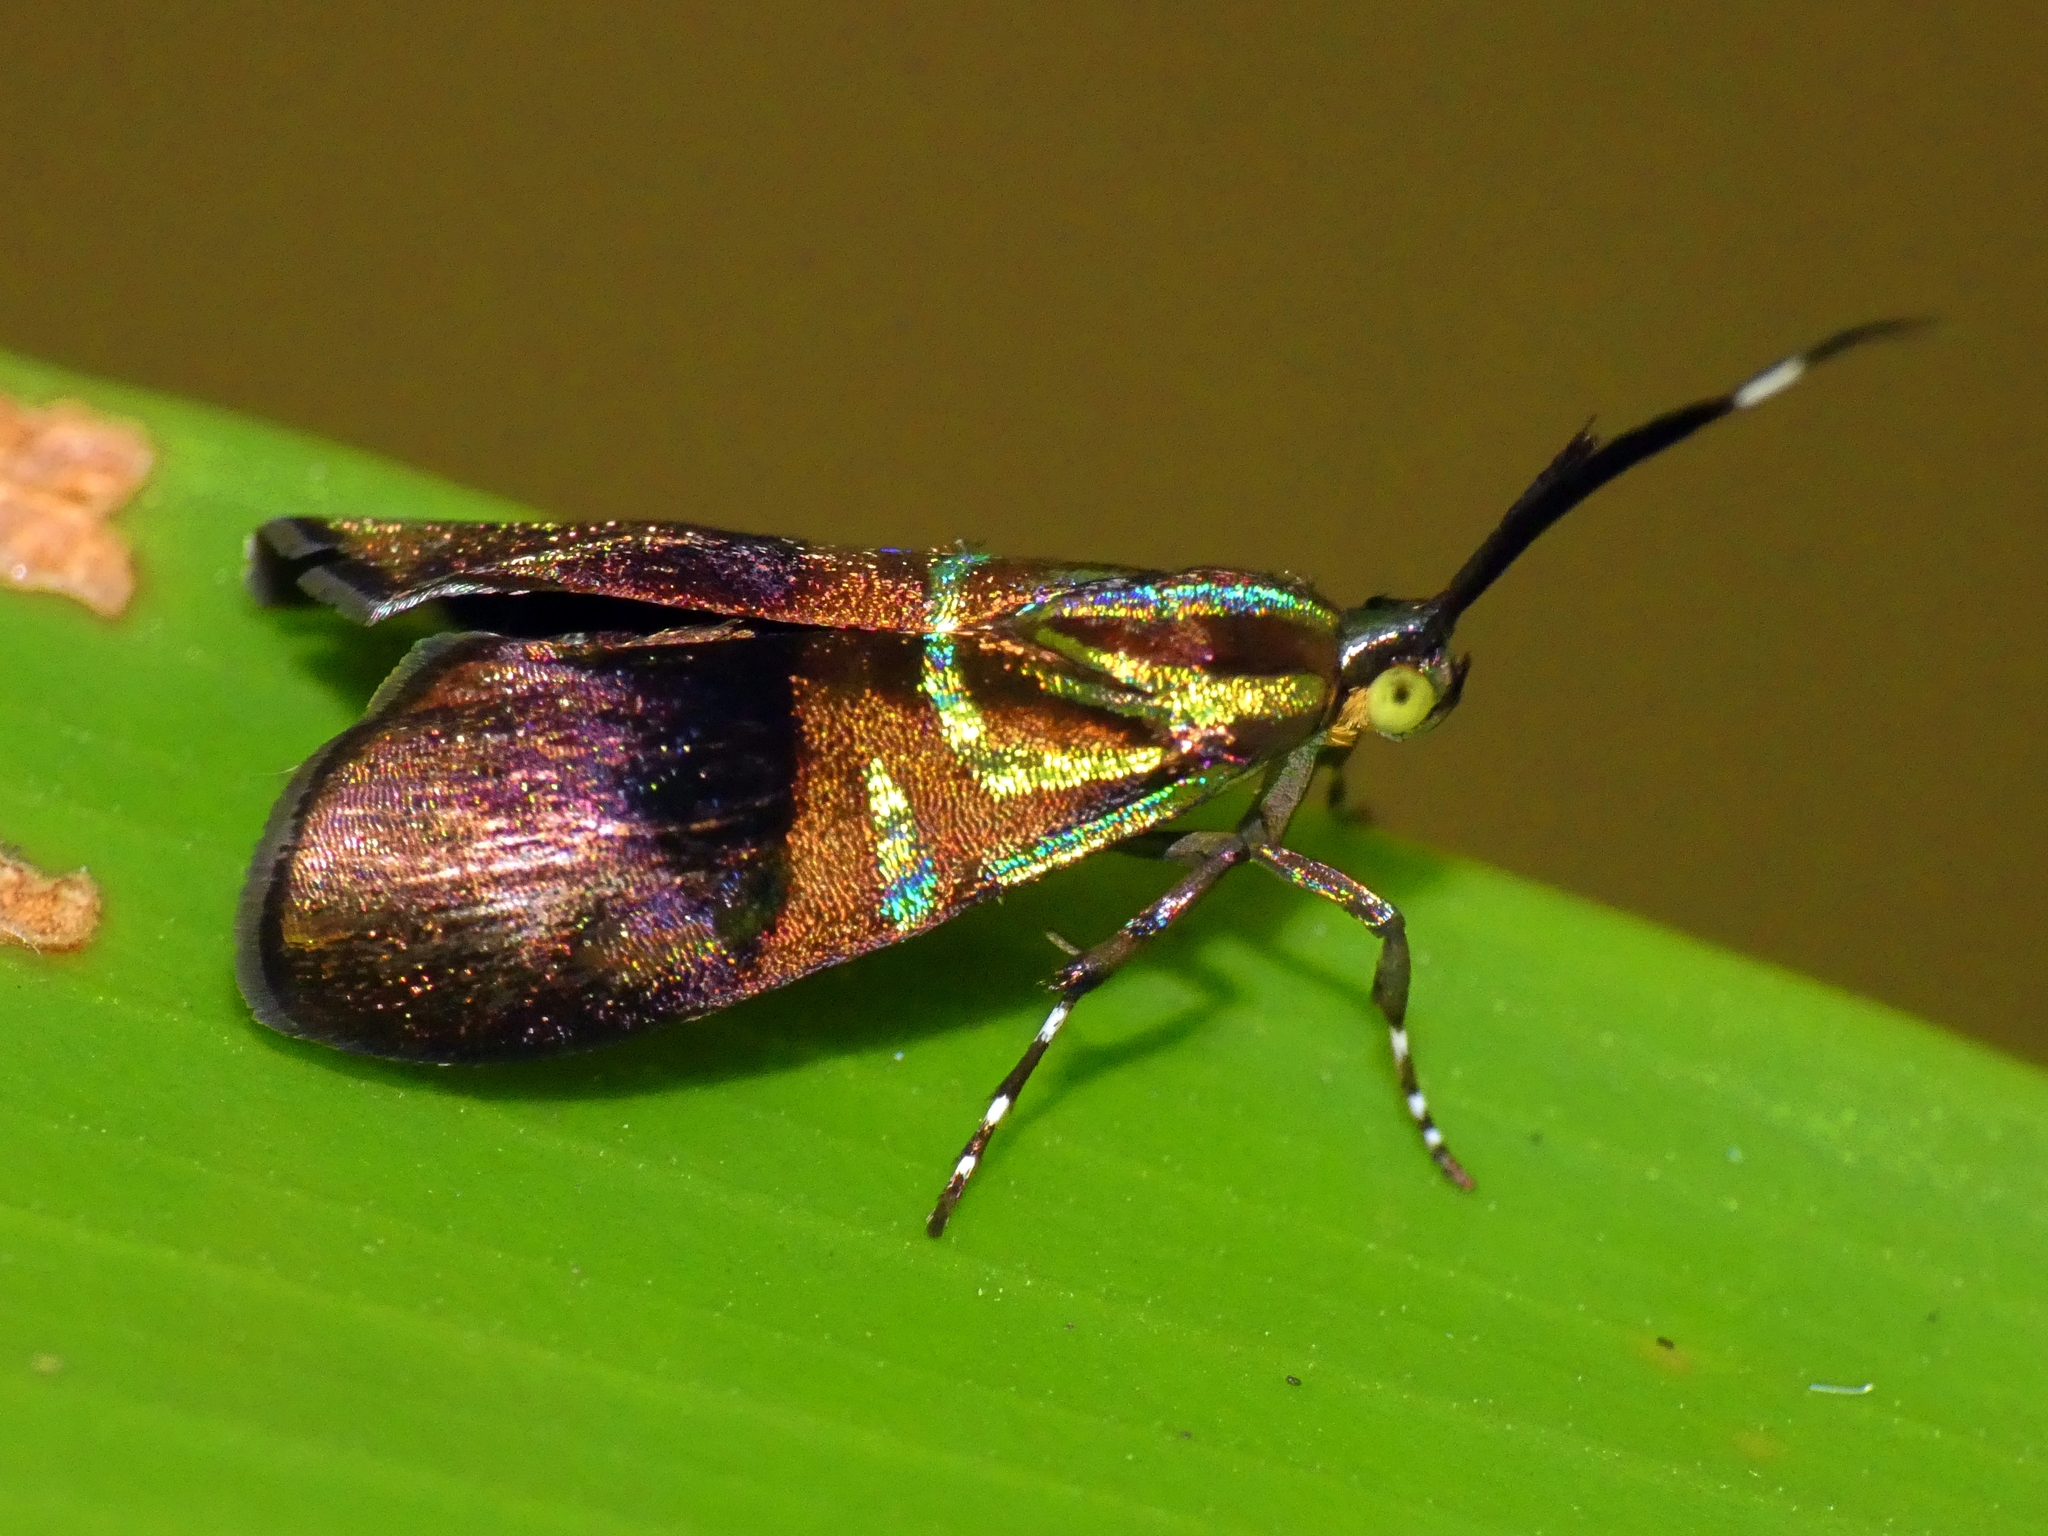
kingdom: Animalia
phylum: Arthropoda
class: Insecta
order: Lepidoptera
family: Choreutidae
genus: Saptha
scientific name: Saptha exanthista
